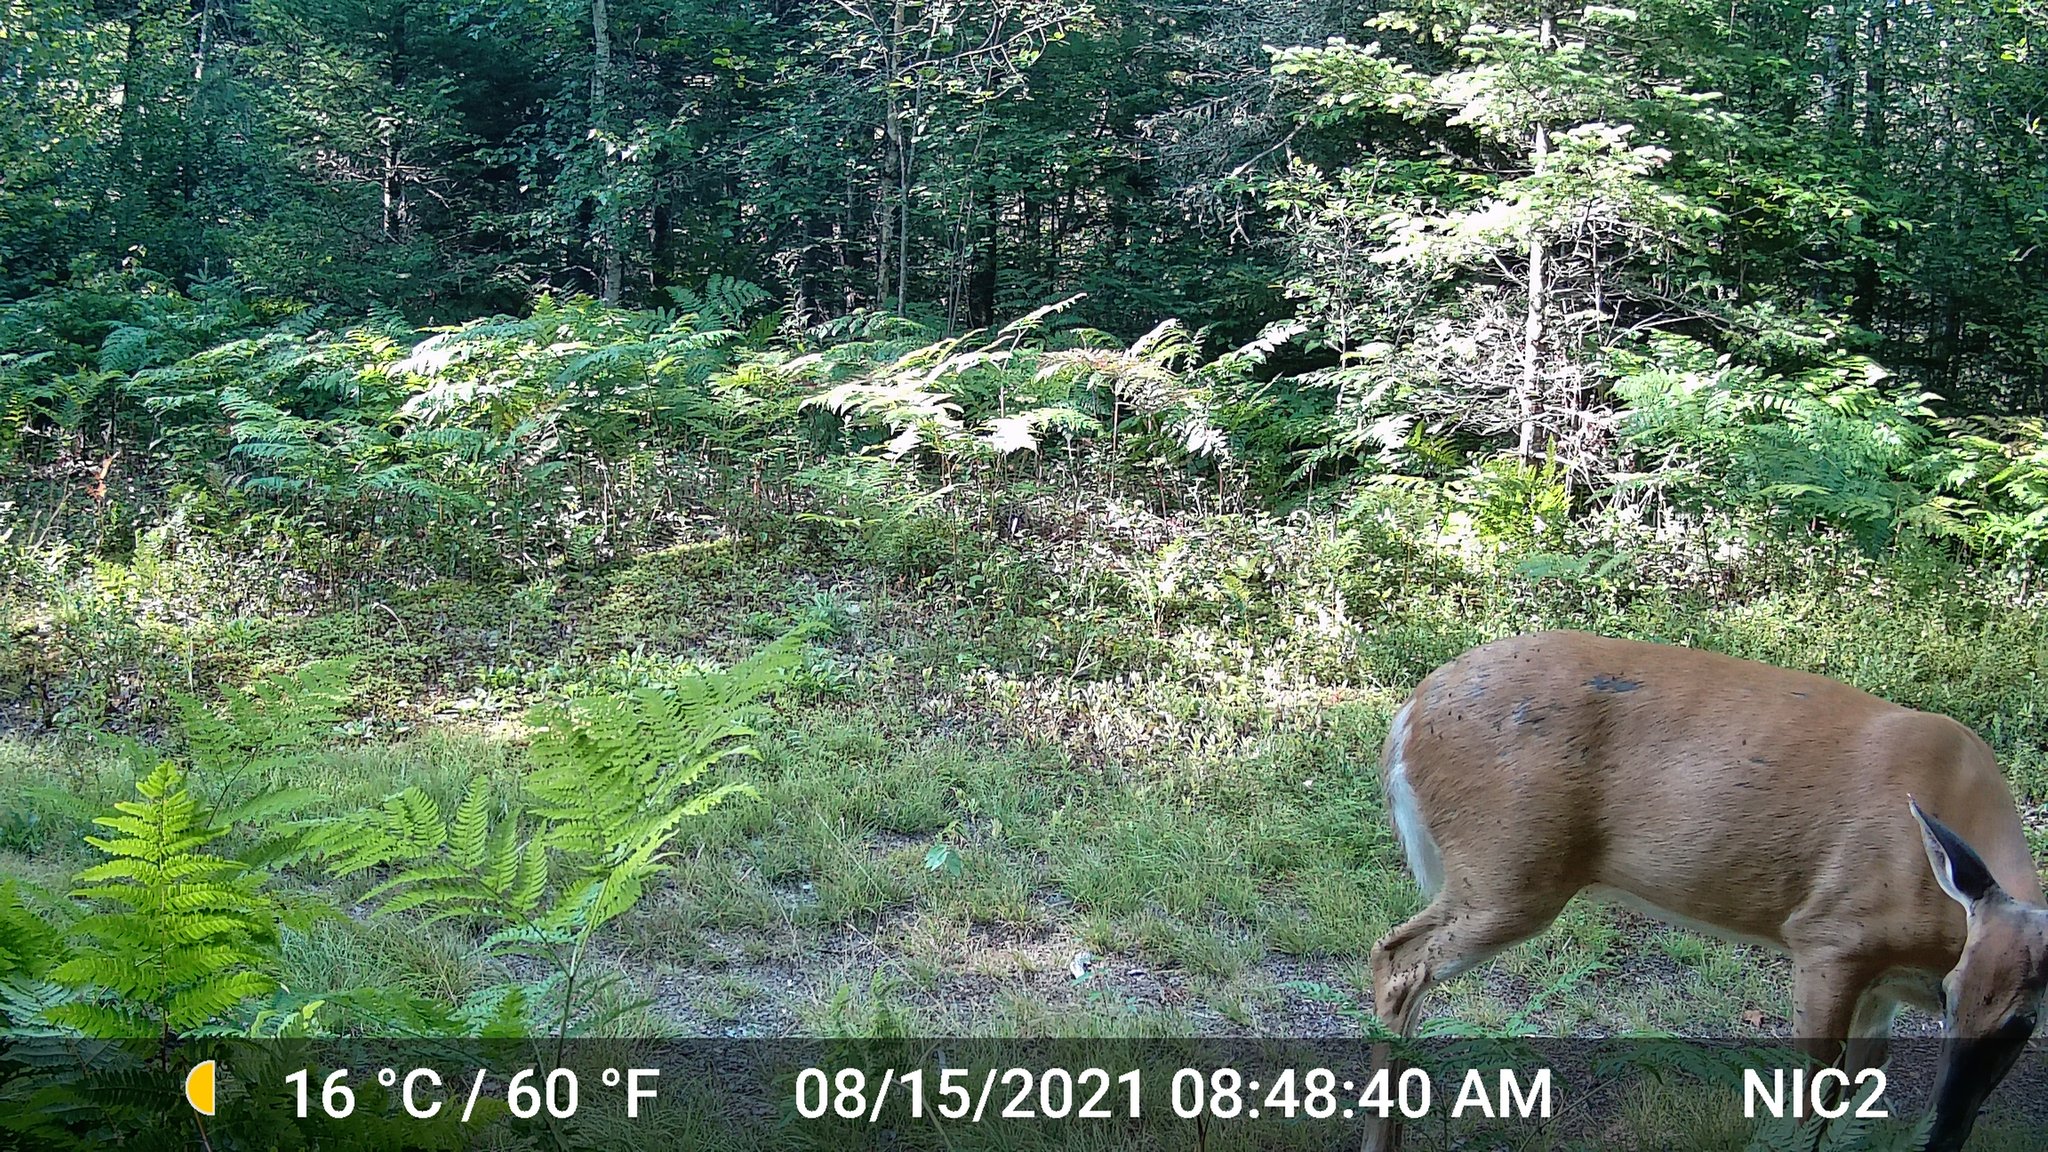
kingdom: Animalia
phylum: Chordata
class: Mammalia
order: Artiodactyla
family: Cervidae
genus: Odocoileus
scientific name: Odocoileus virginianus
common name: White-tailed deer
